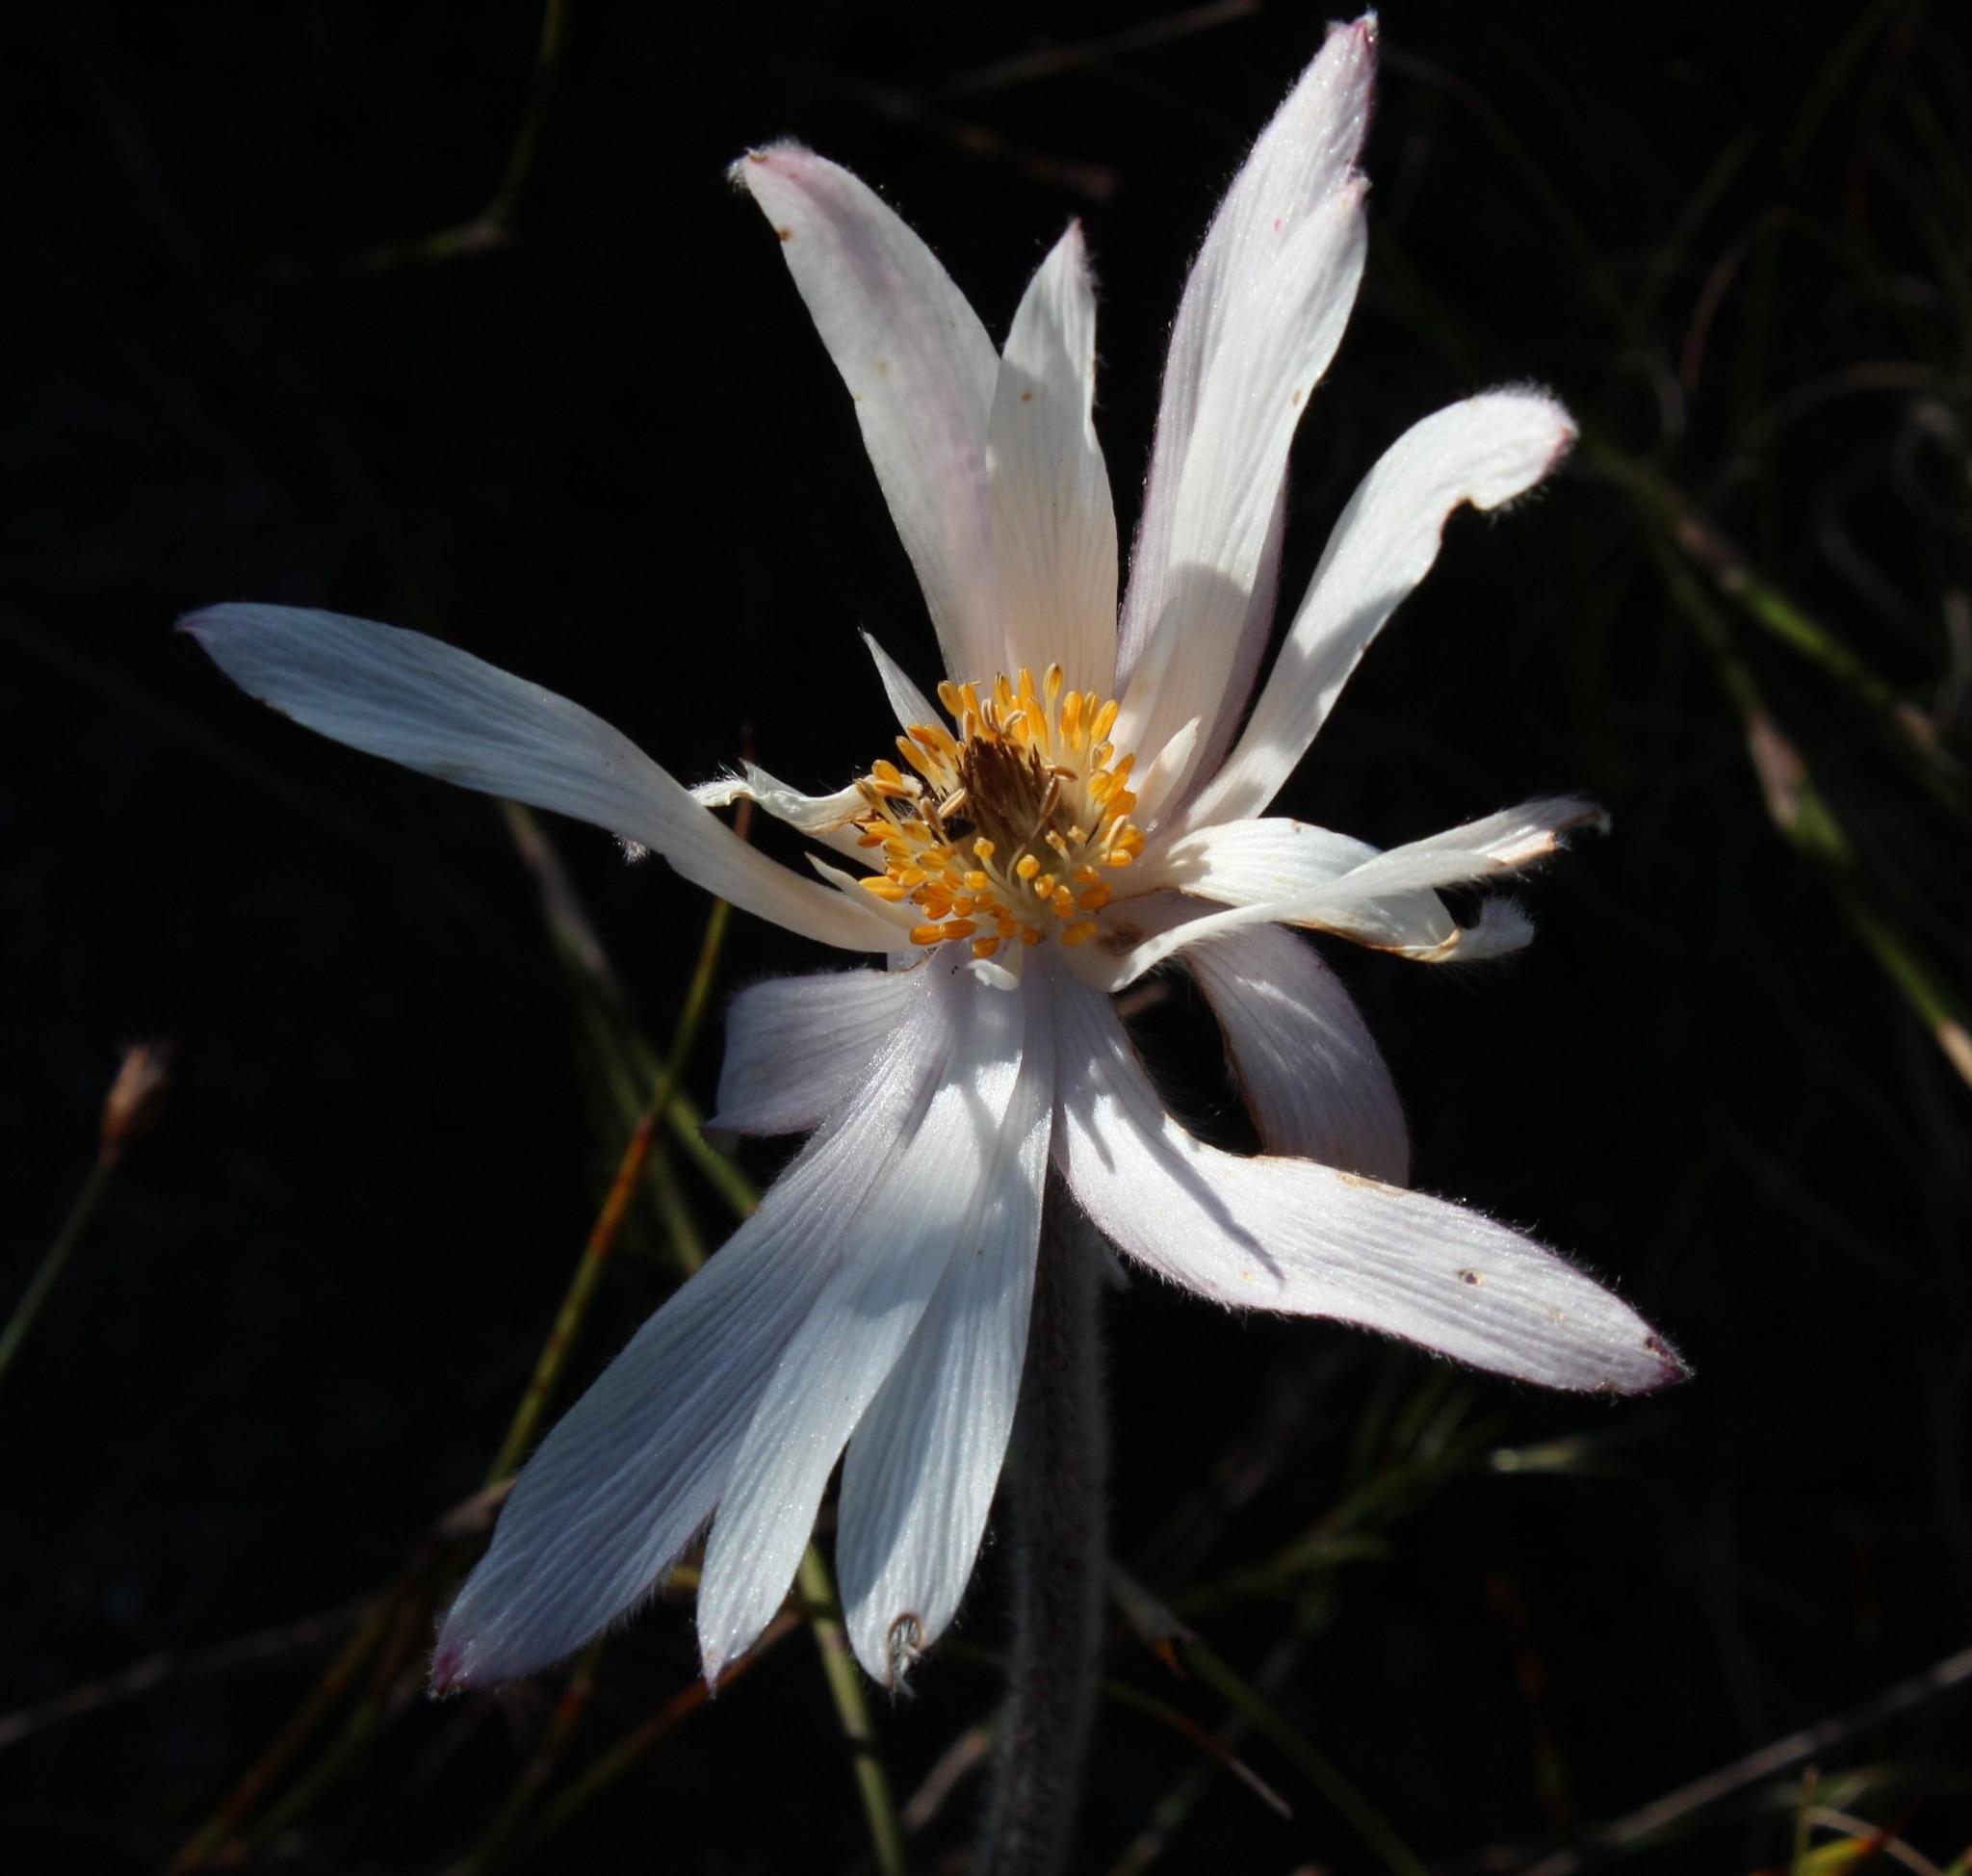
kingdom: Plantae
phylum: Tracheophyta
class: Magnoliopsida
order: Ranunculales
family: Ranunculaceae
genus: Knowltonia
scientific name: Knowltonia tenuifolia
